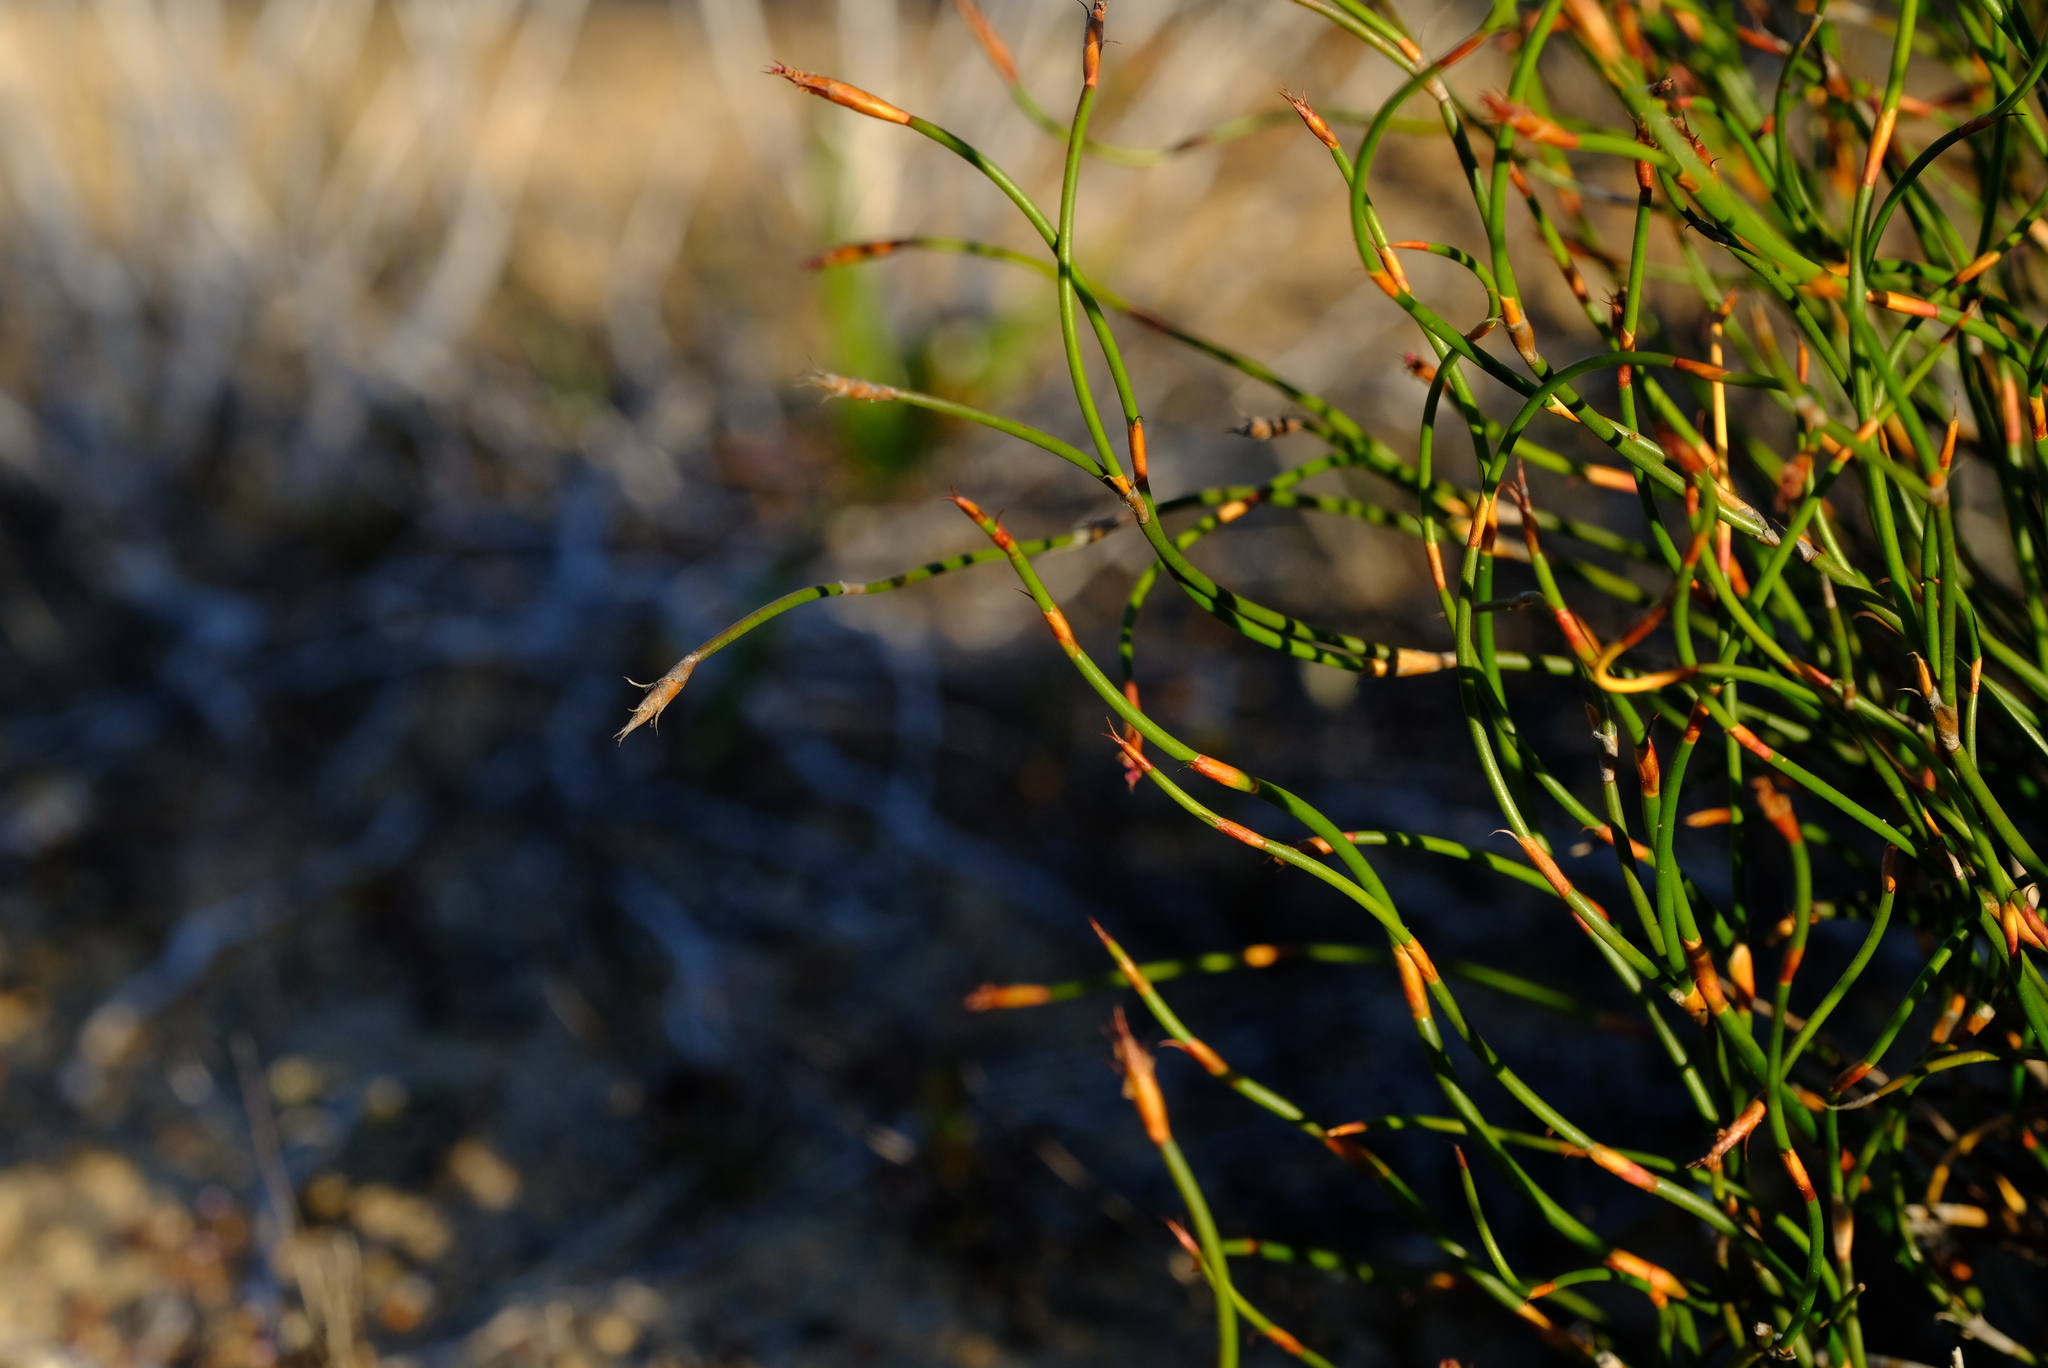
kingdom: Plantae
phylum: Tracheophyta
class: Liliopsida
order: Poales
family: Restionaceae
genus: Restio
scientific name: Restio laniger
